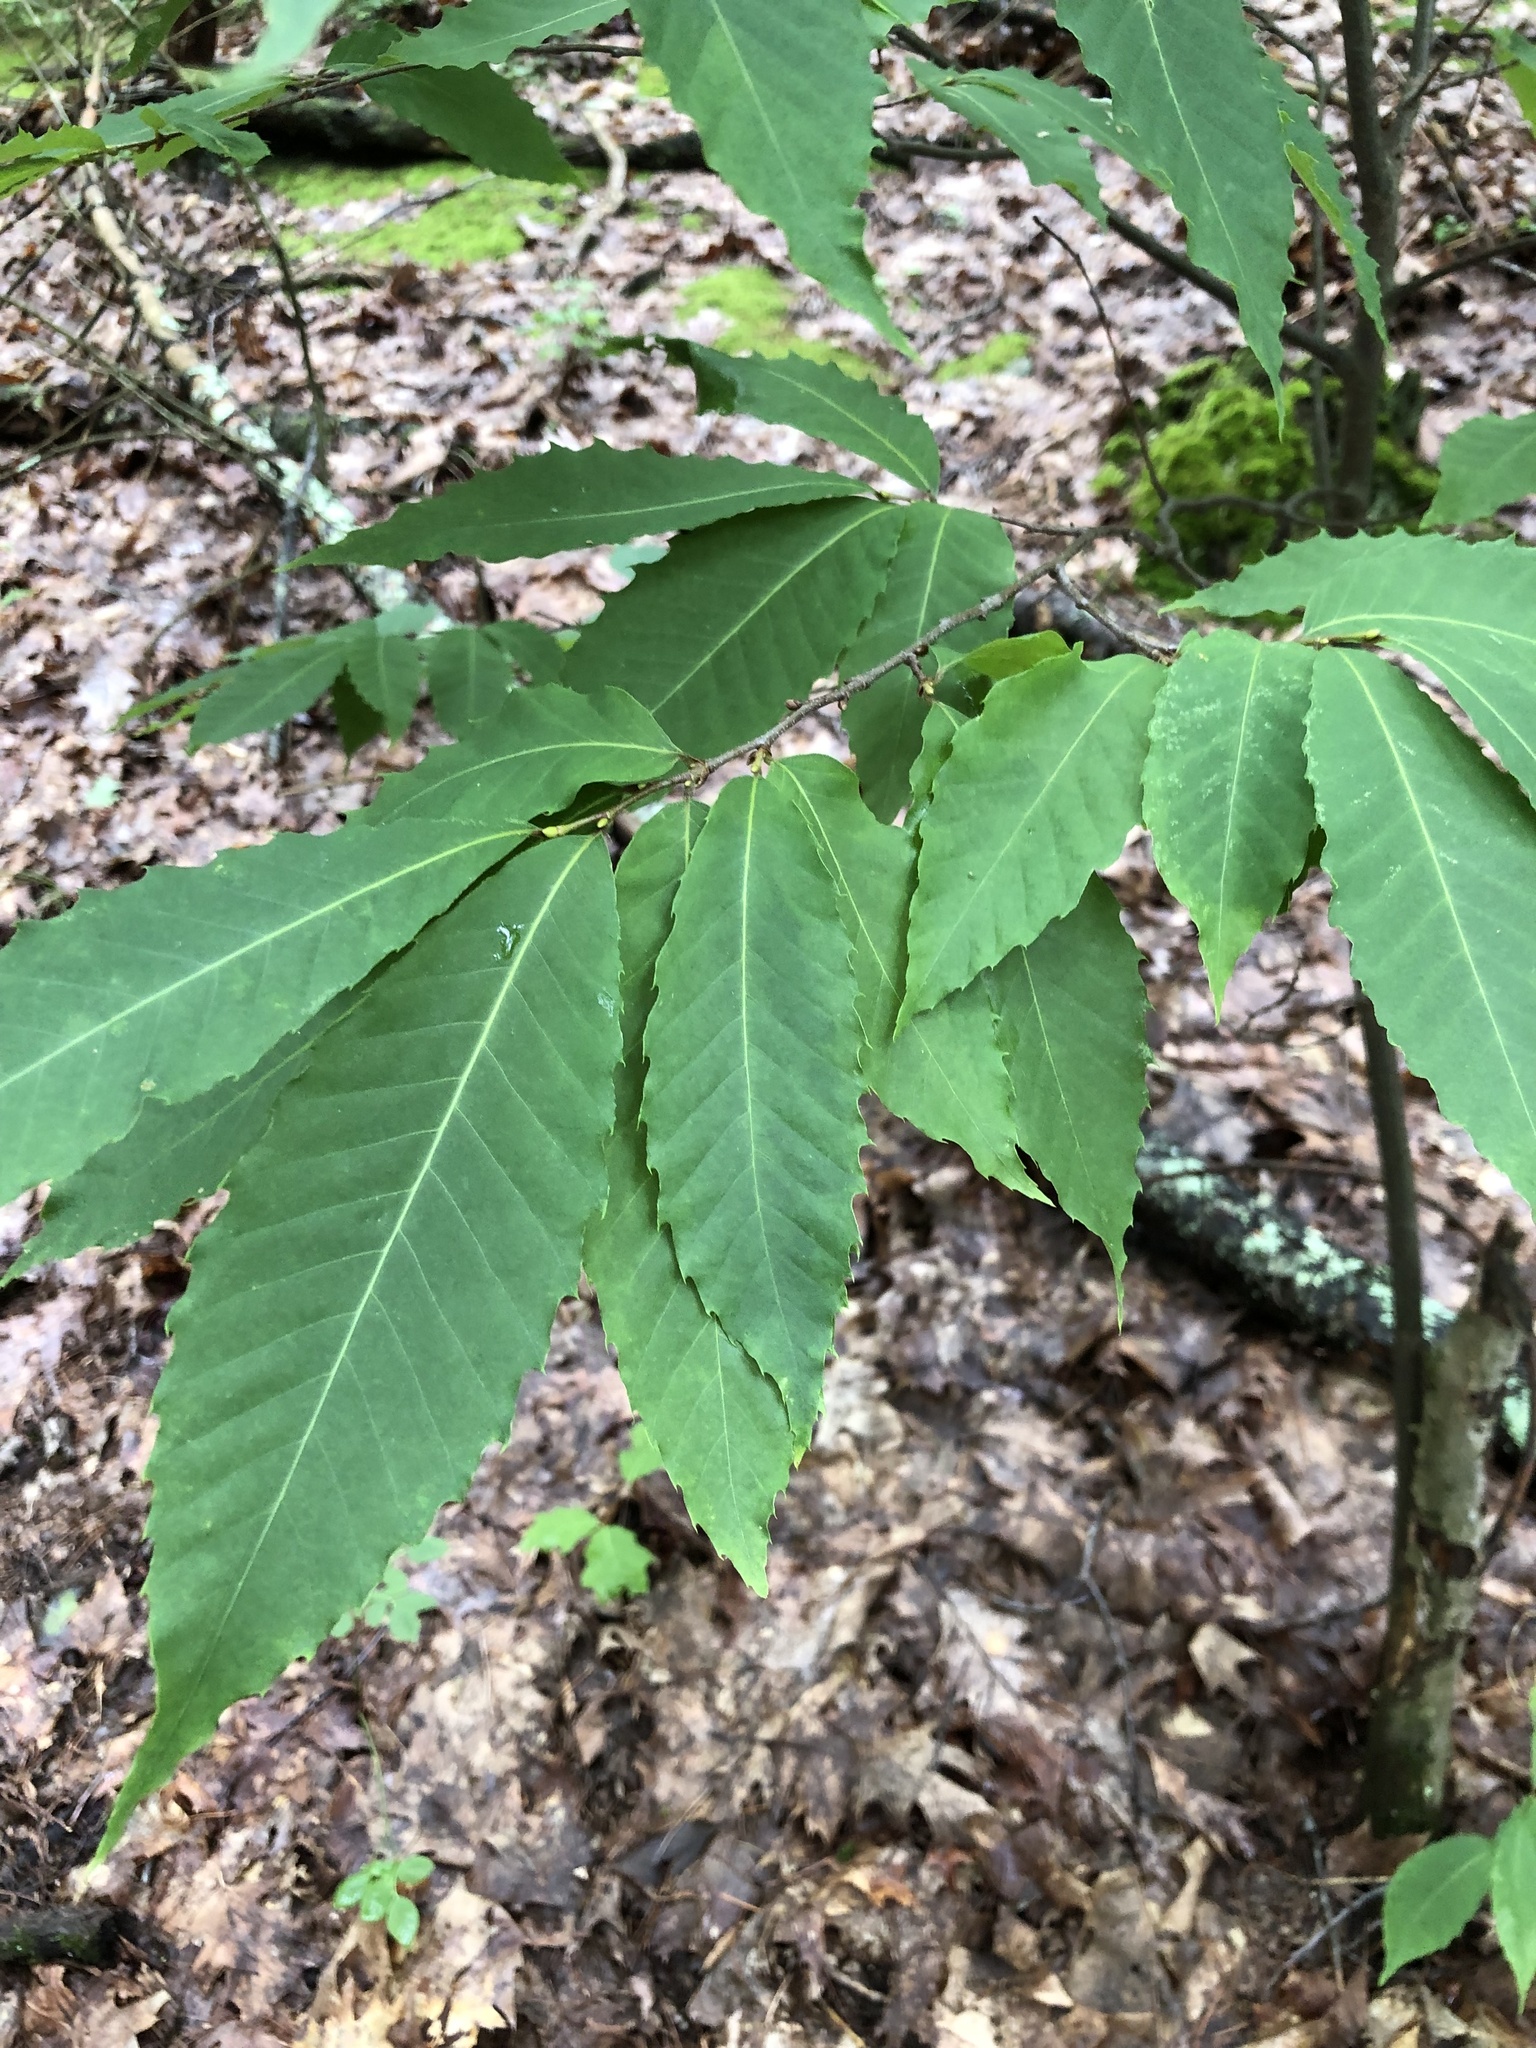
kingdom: Plantae
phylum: Tracheophyta
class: Magnoliopsida
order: Fagales
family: Fagaceae
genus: Castanea
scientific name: Castanea dentata
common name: American chestnut
